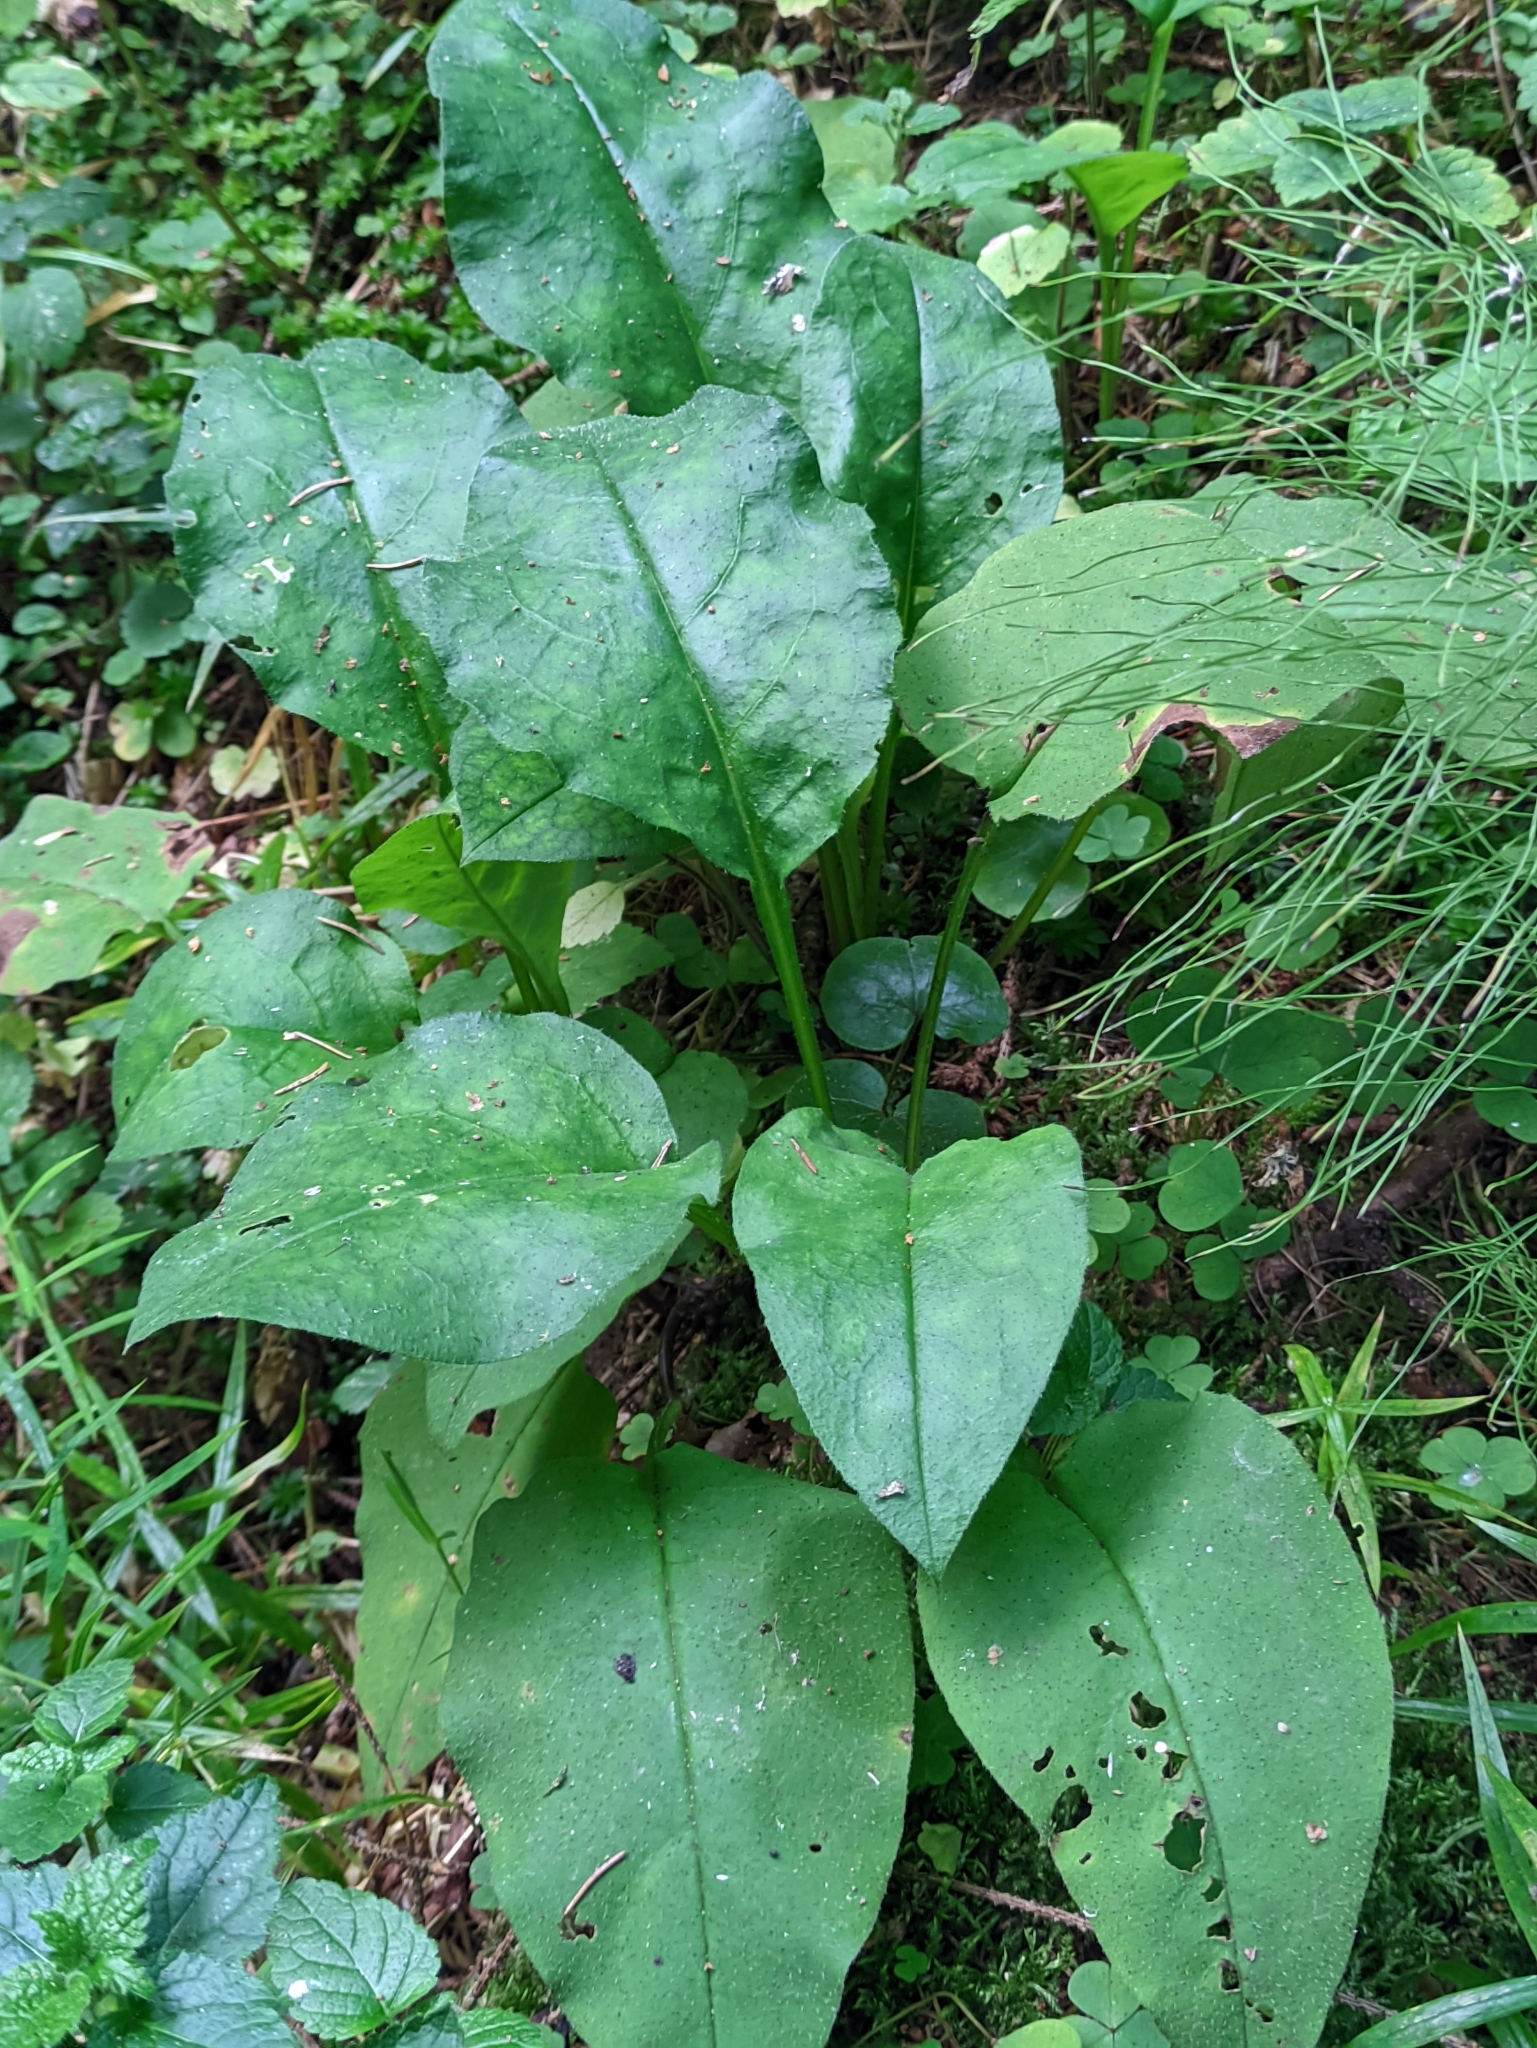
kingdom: Plantae
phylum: Tracheophyta
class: Magnoliopsida
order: Boraginales
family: Boraginaceae
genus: Pulmonaria
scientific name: Pulmonaria obscura
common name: Suffolk lungwort
